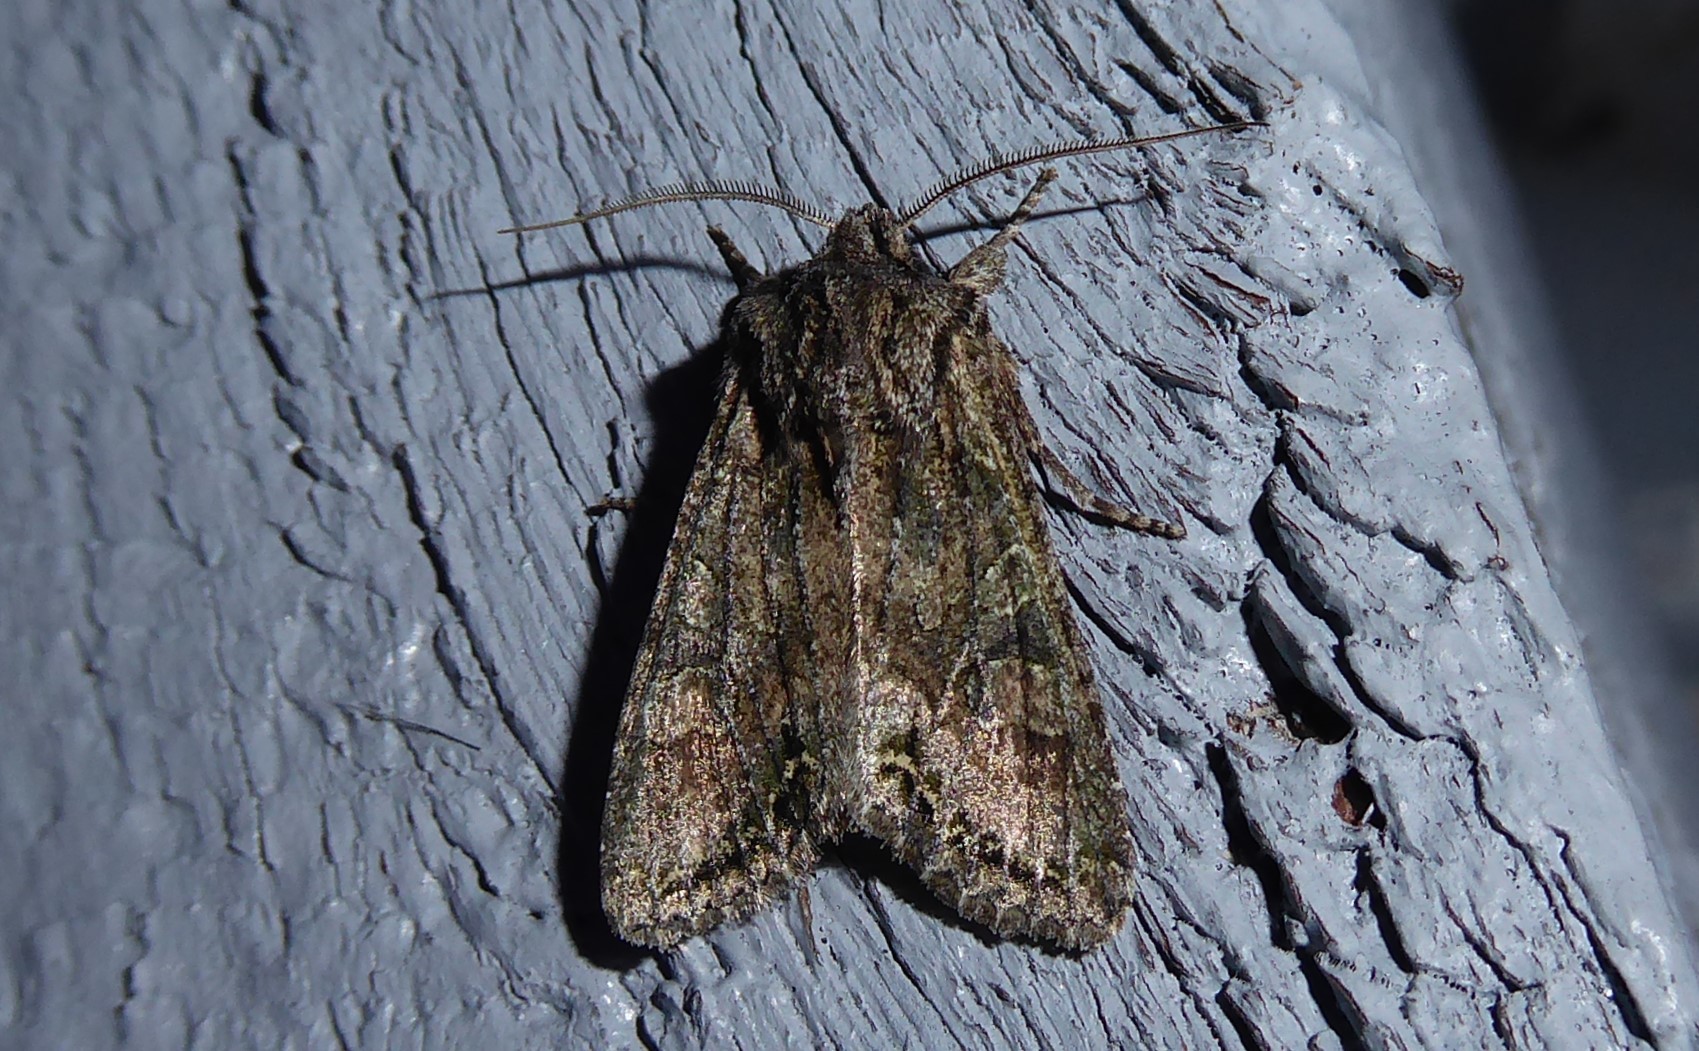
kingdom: Animalia
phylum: Arthropoda
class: Insecta
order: Lepidoptera
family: Noctuidae
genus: Ichneutica
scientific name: Ichneutica mutans
